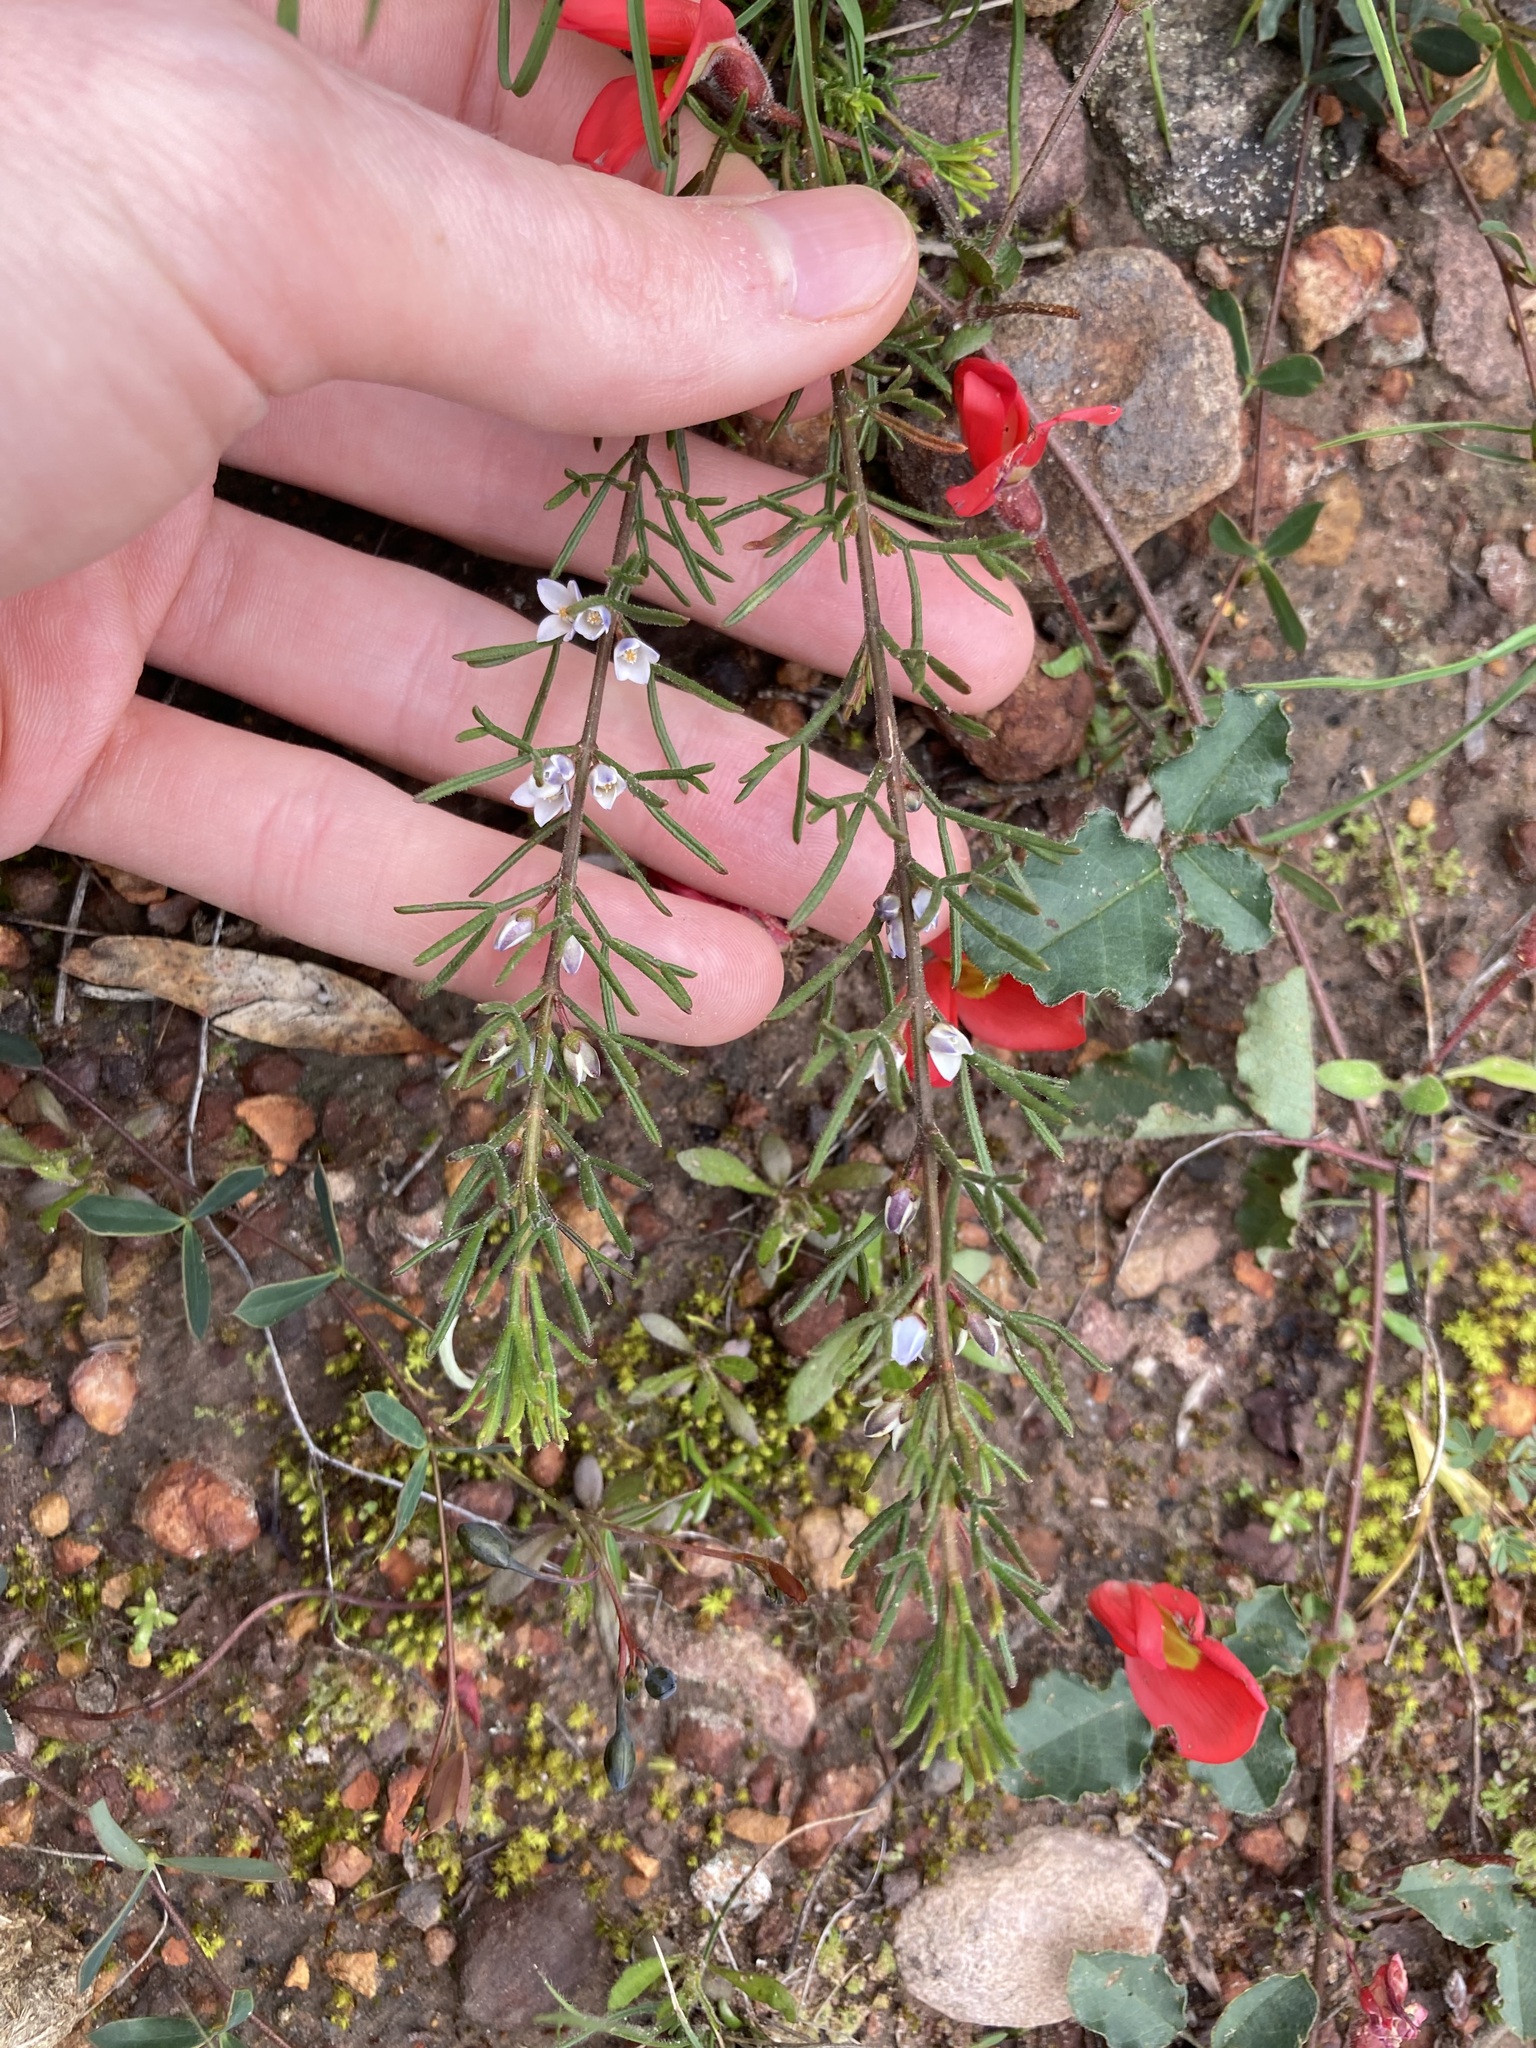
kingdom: Plantae
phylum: Tracheophyta
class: Magnoliopsida
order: Sapindales
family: Rutaceae
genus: Cyanothamnus
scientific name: Cyanothamnus ramosus
